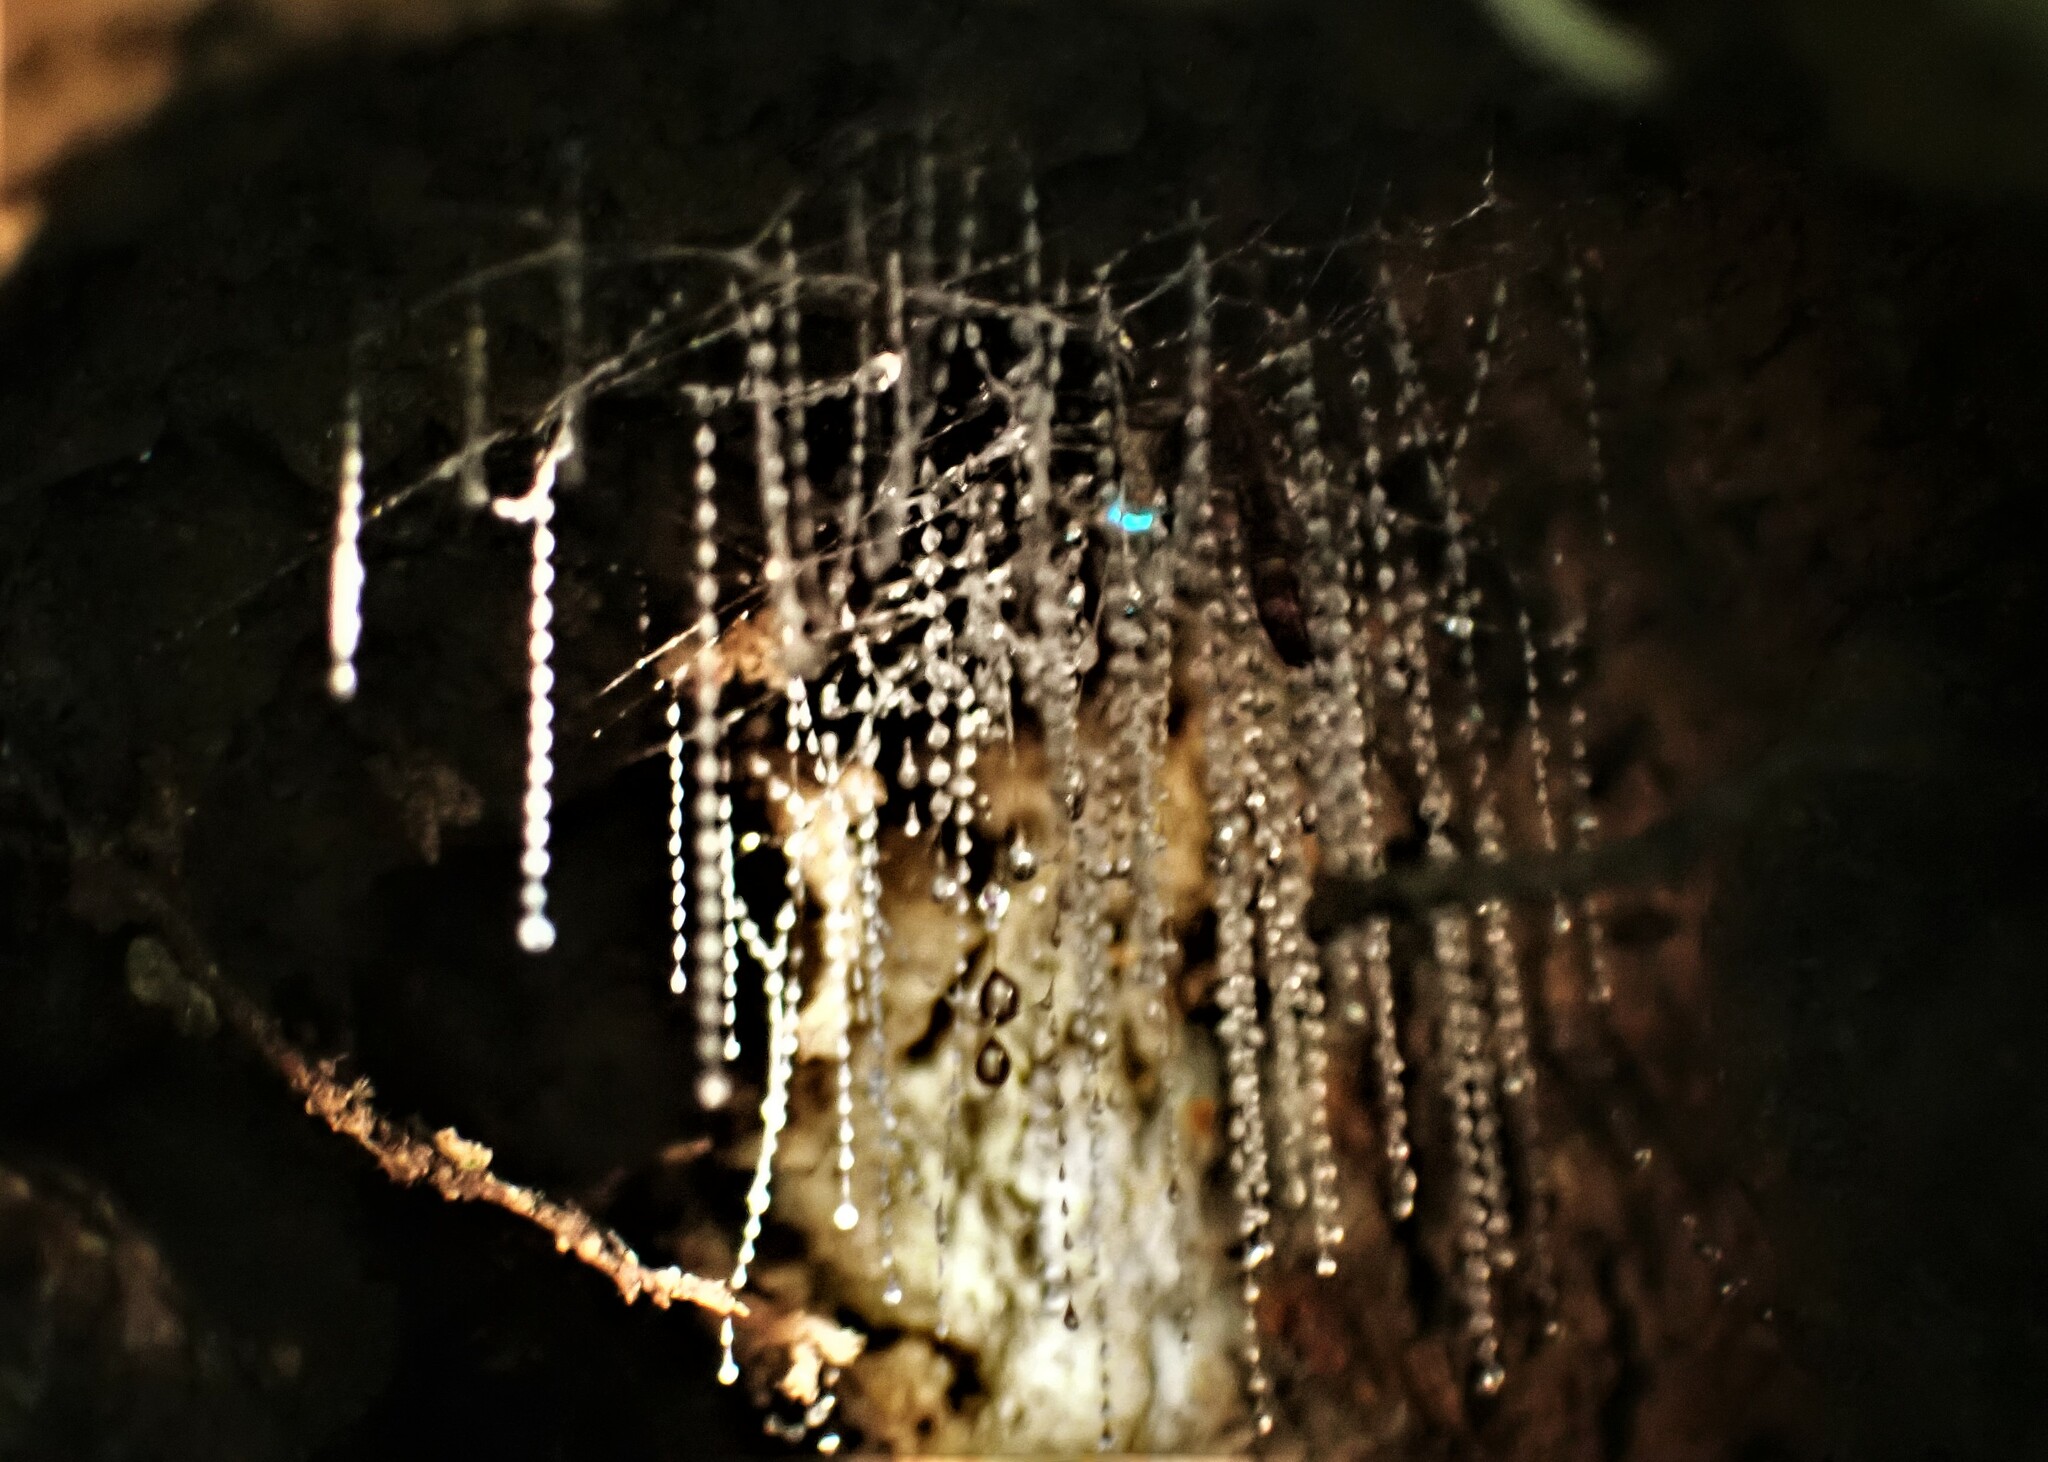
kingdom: Animalia
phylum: Arthropoda
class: Insecta
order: Diptera
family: Keroplatidae
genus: Arachnocampa
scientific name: Arachnocampa luminosa
